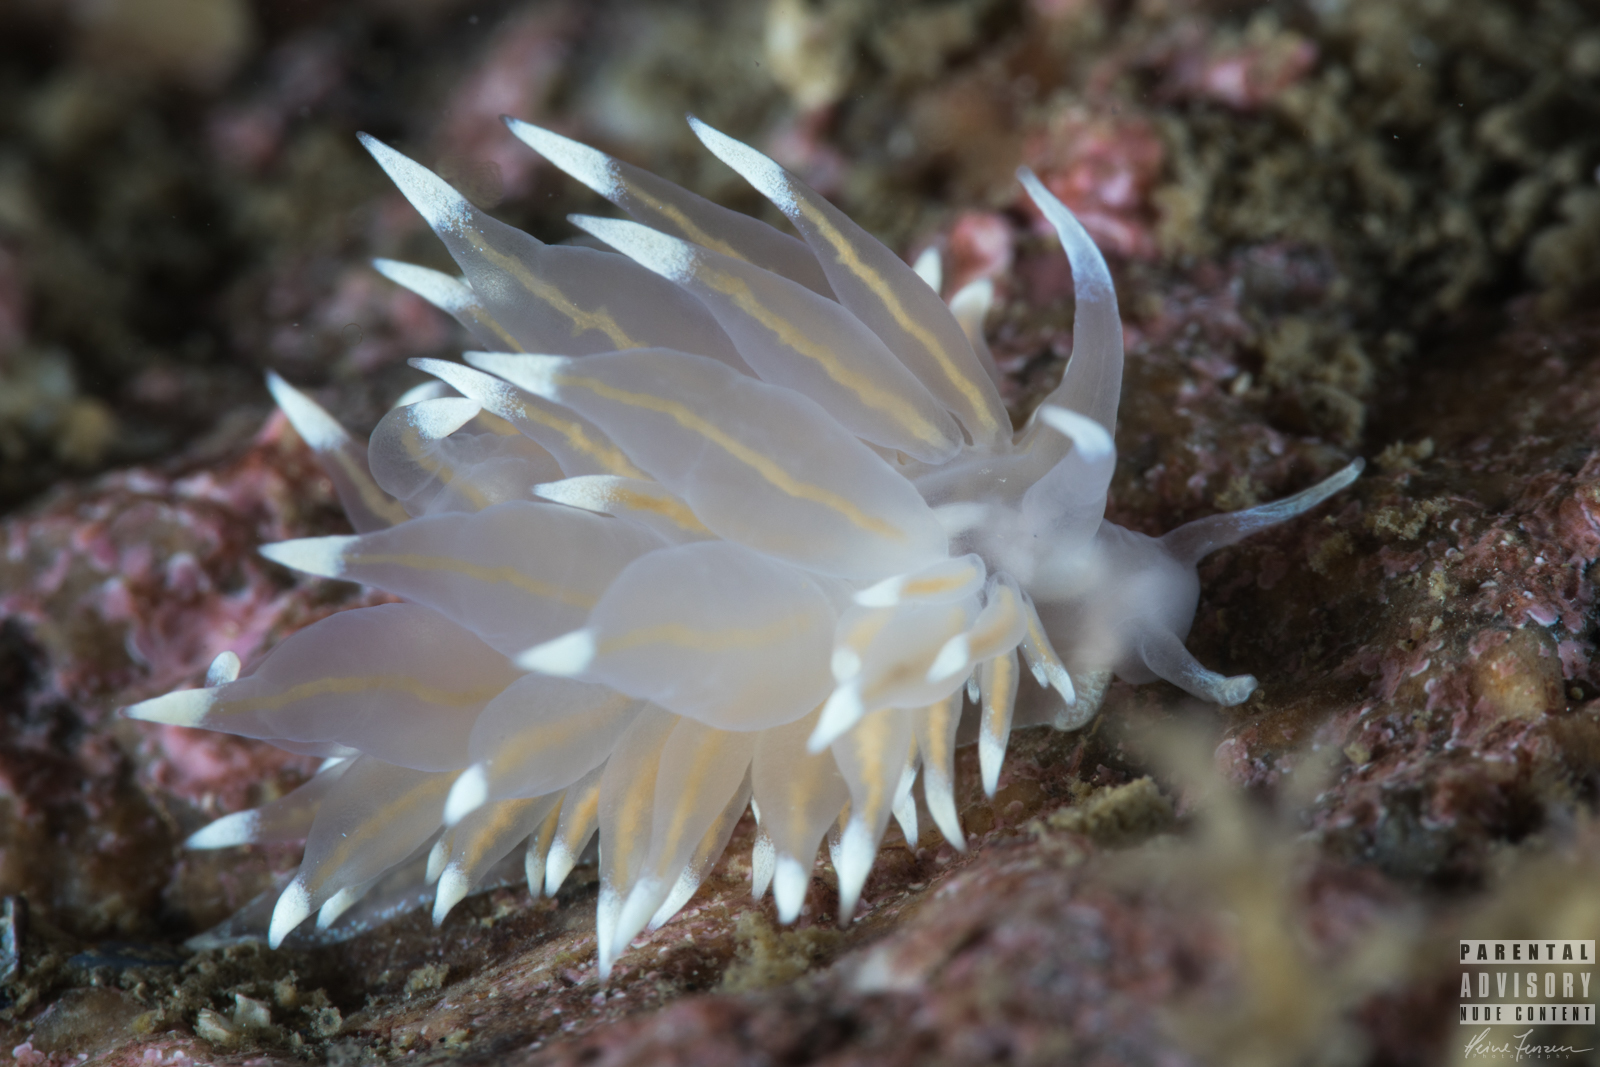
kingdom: Animalia
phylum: Mollusca
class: Gastropoda
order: Nudibranchia
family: Eubranchidae
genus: Amphorina
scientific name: Amphorina linensis
